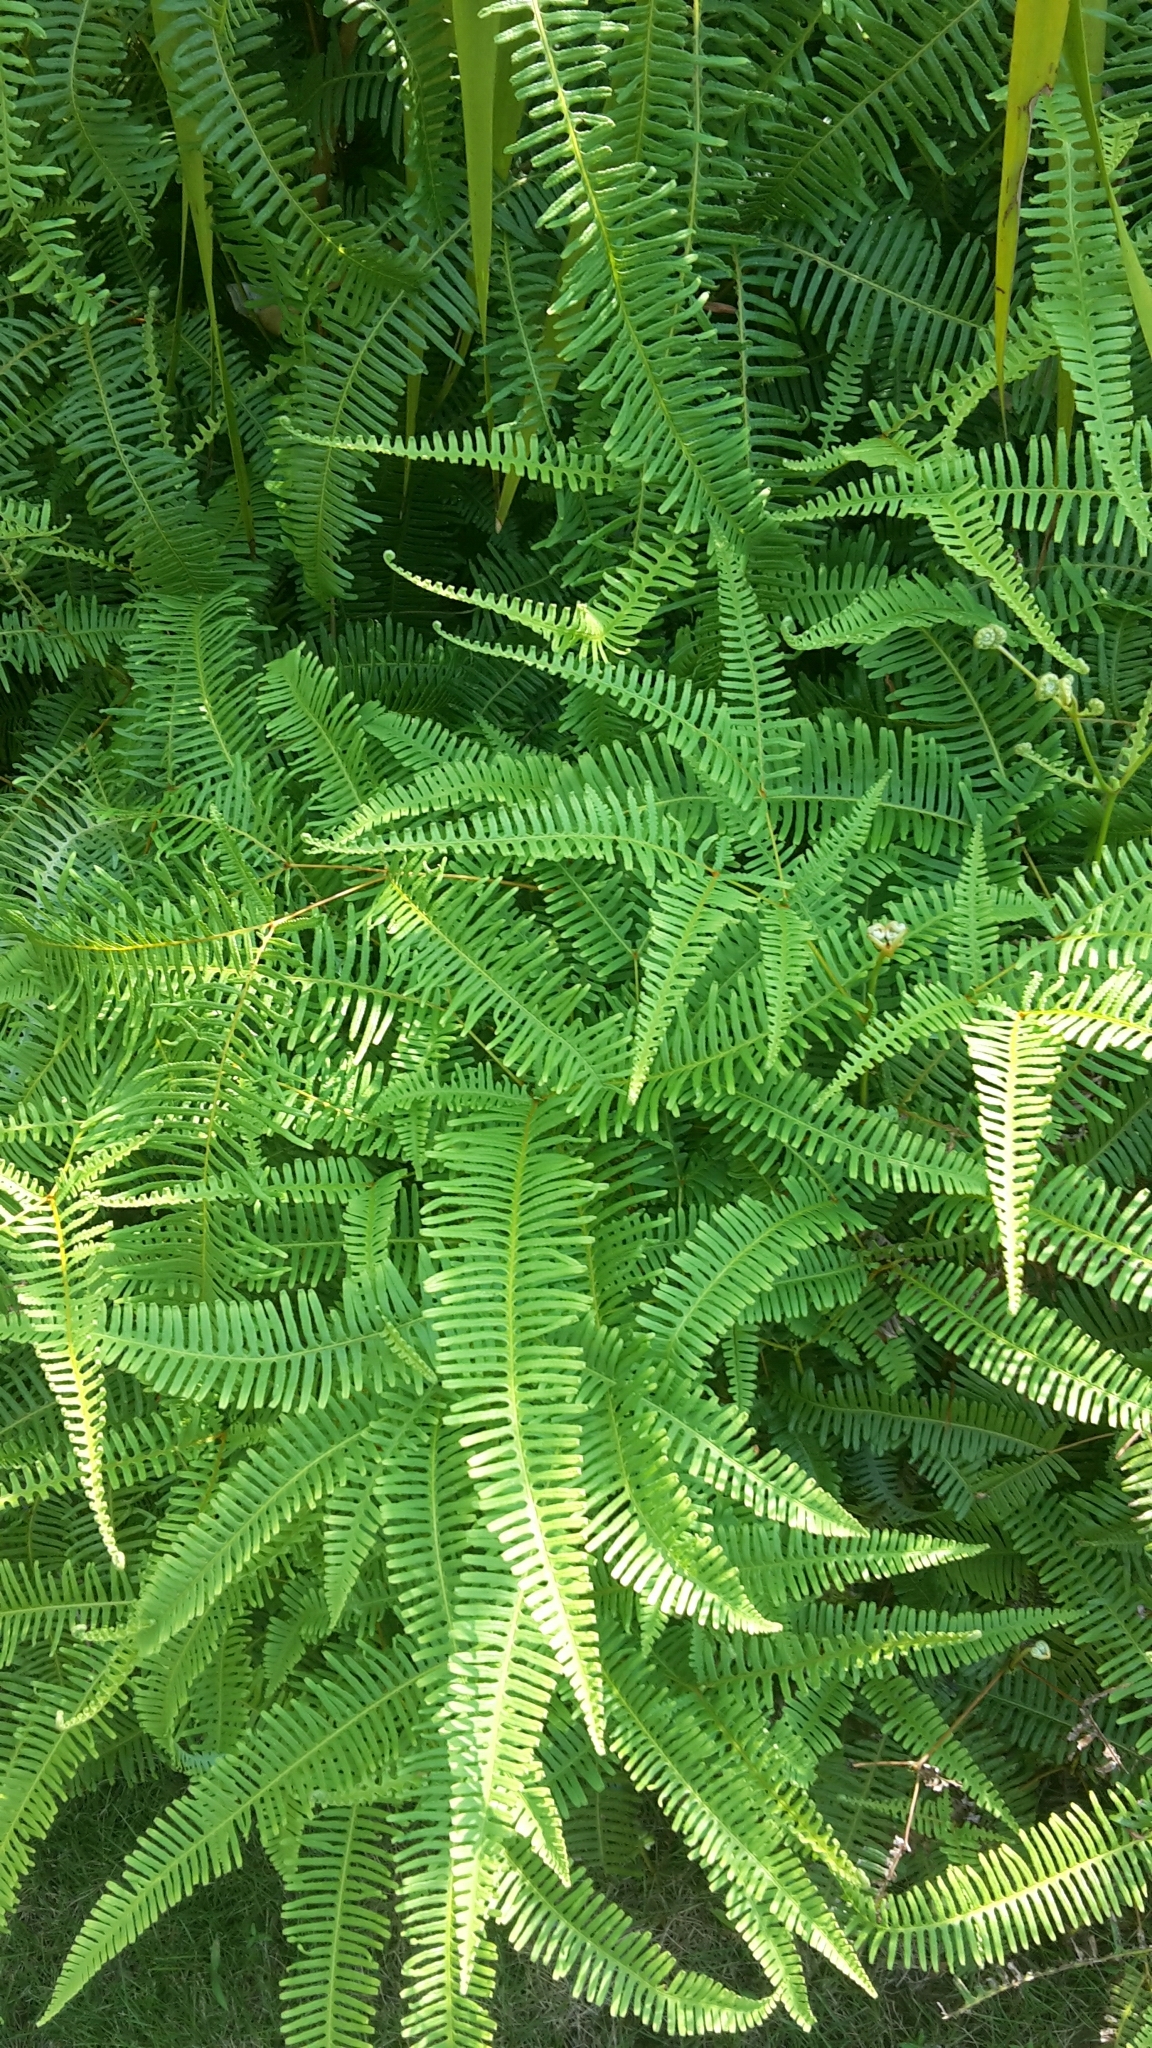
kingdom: Plantae
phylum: Tracheophyta
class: Polypodiopsida
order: Gleicheniales
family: Gleicheniaceae
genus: Dicranopteris
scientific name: Dicranopteris pedata
